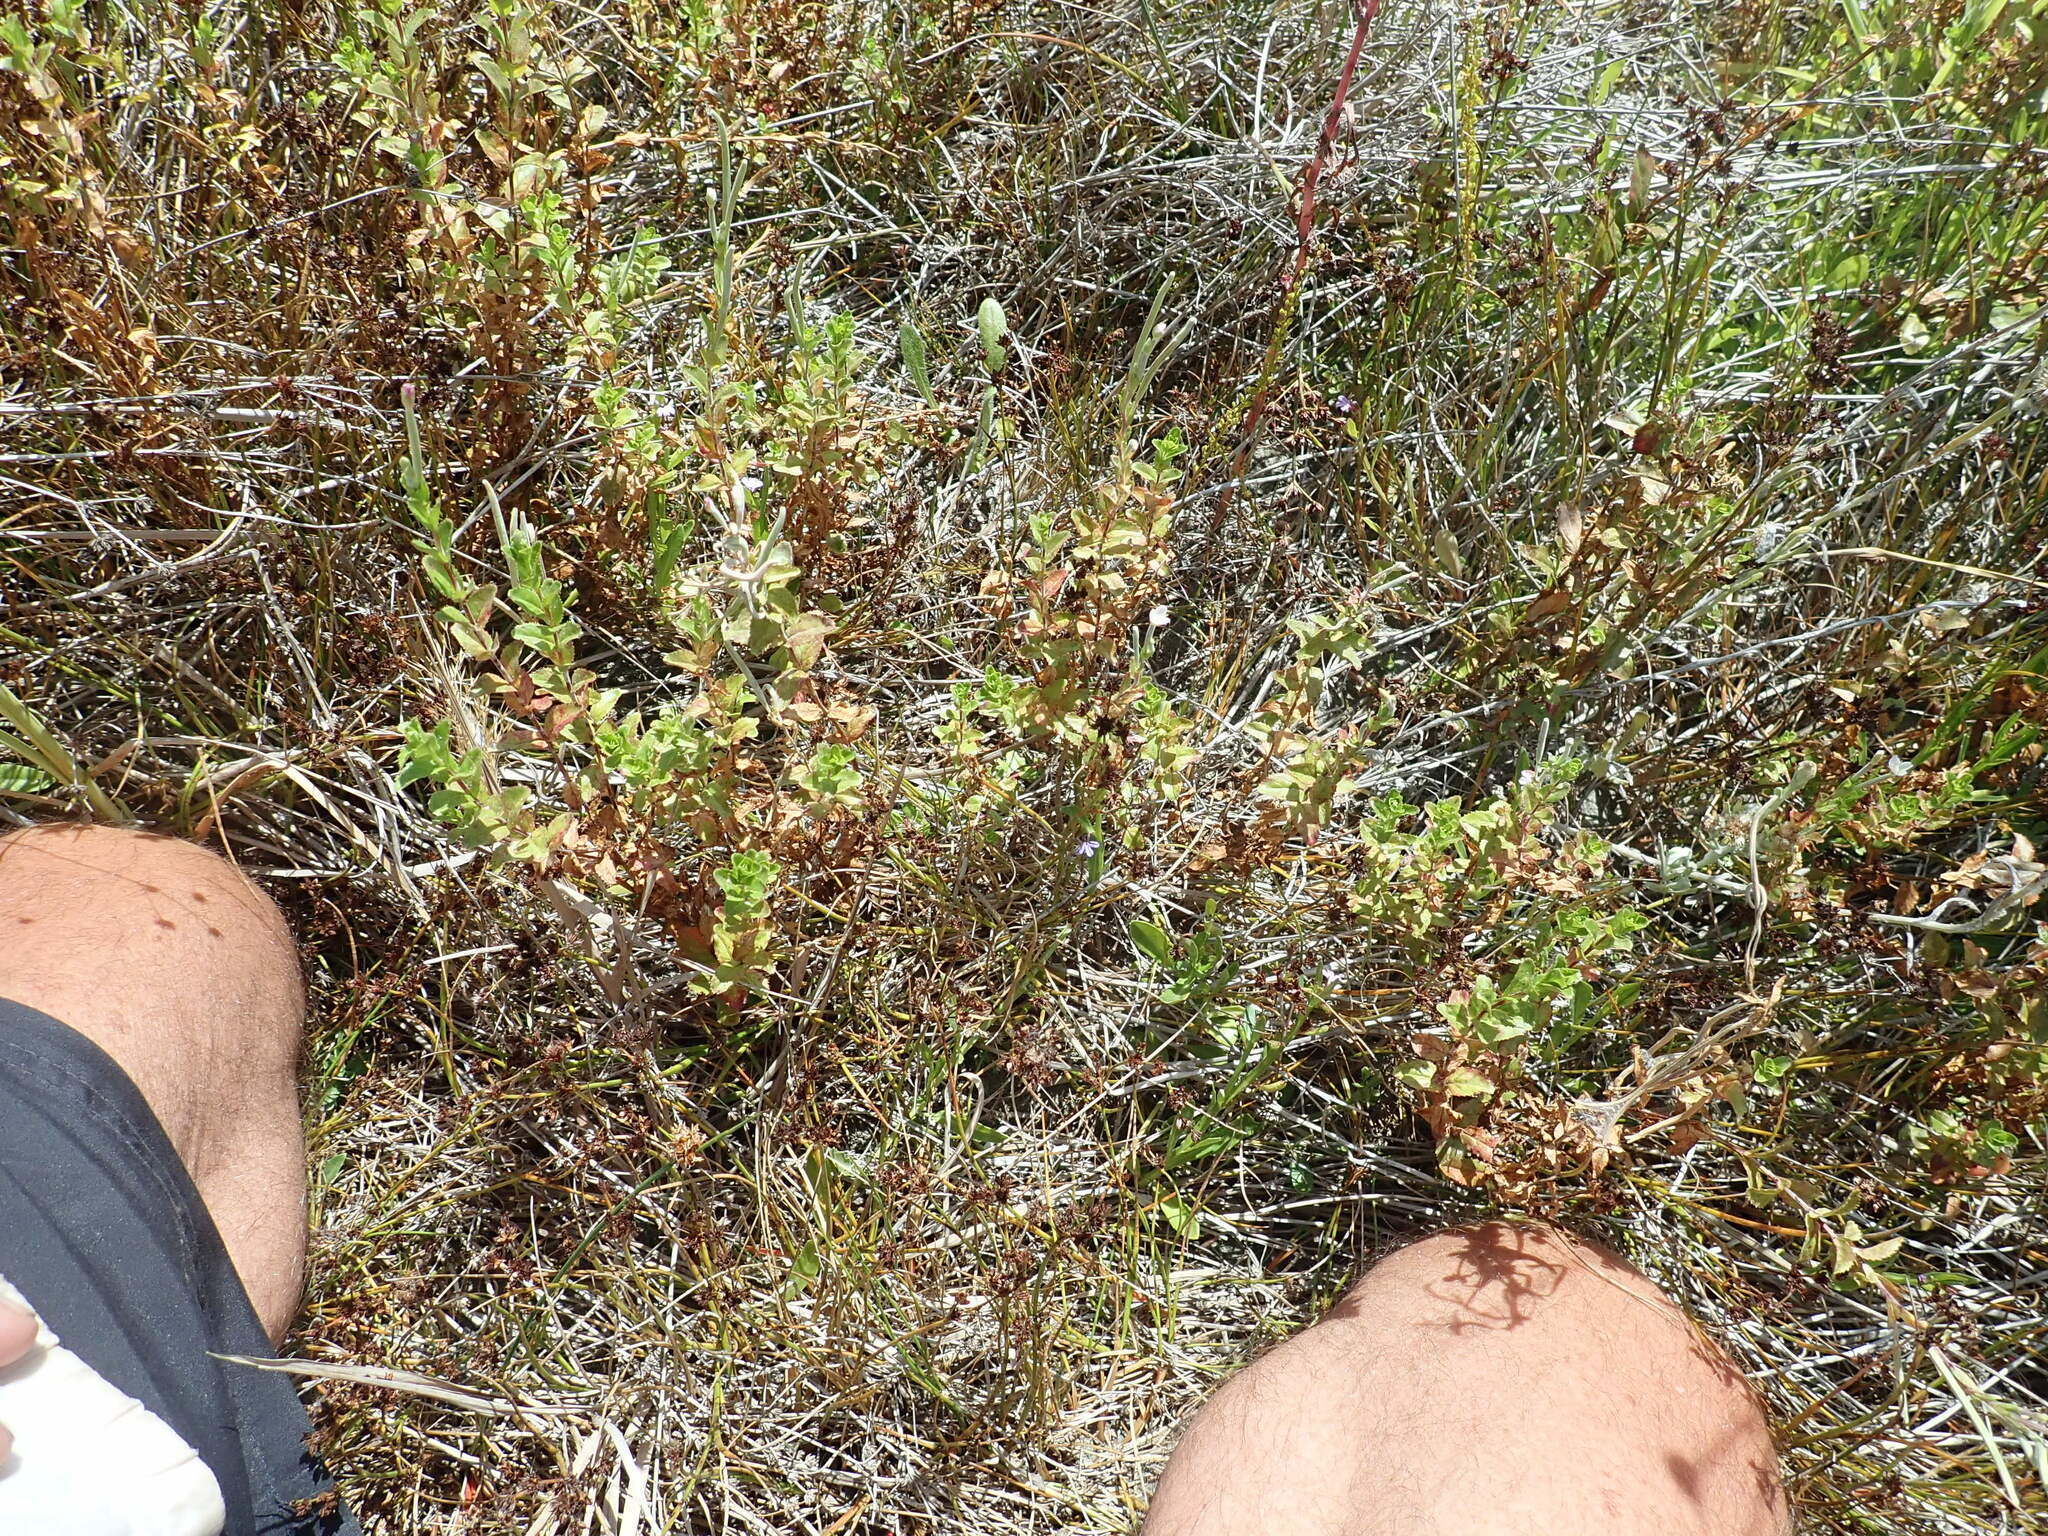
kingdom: Plantae
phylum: Tracheophyta
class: Magnoliopsida
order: Myrtales
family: Onagraceae
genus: Epilobium
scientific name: Epilobium billardiereanum
